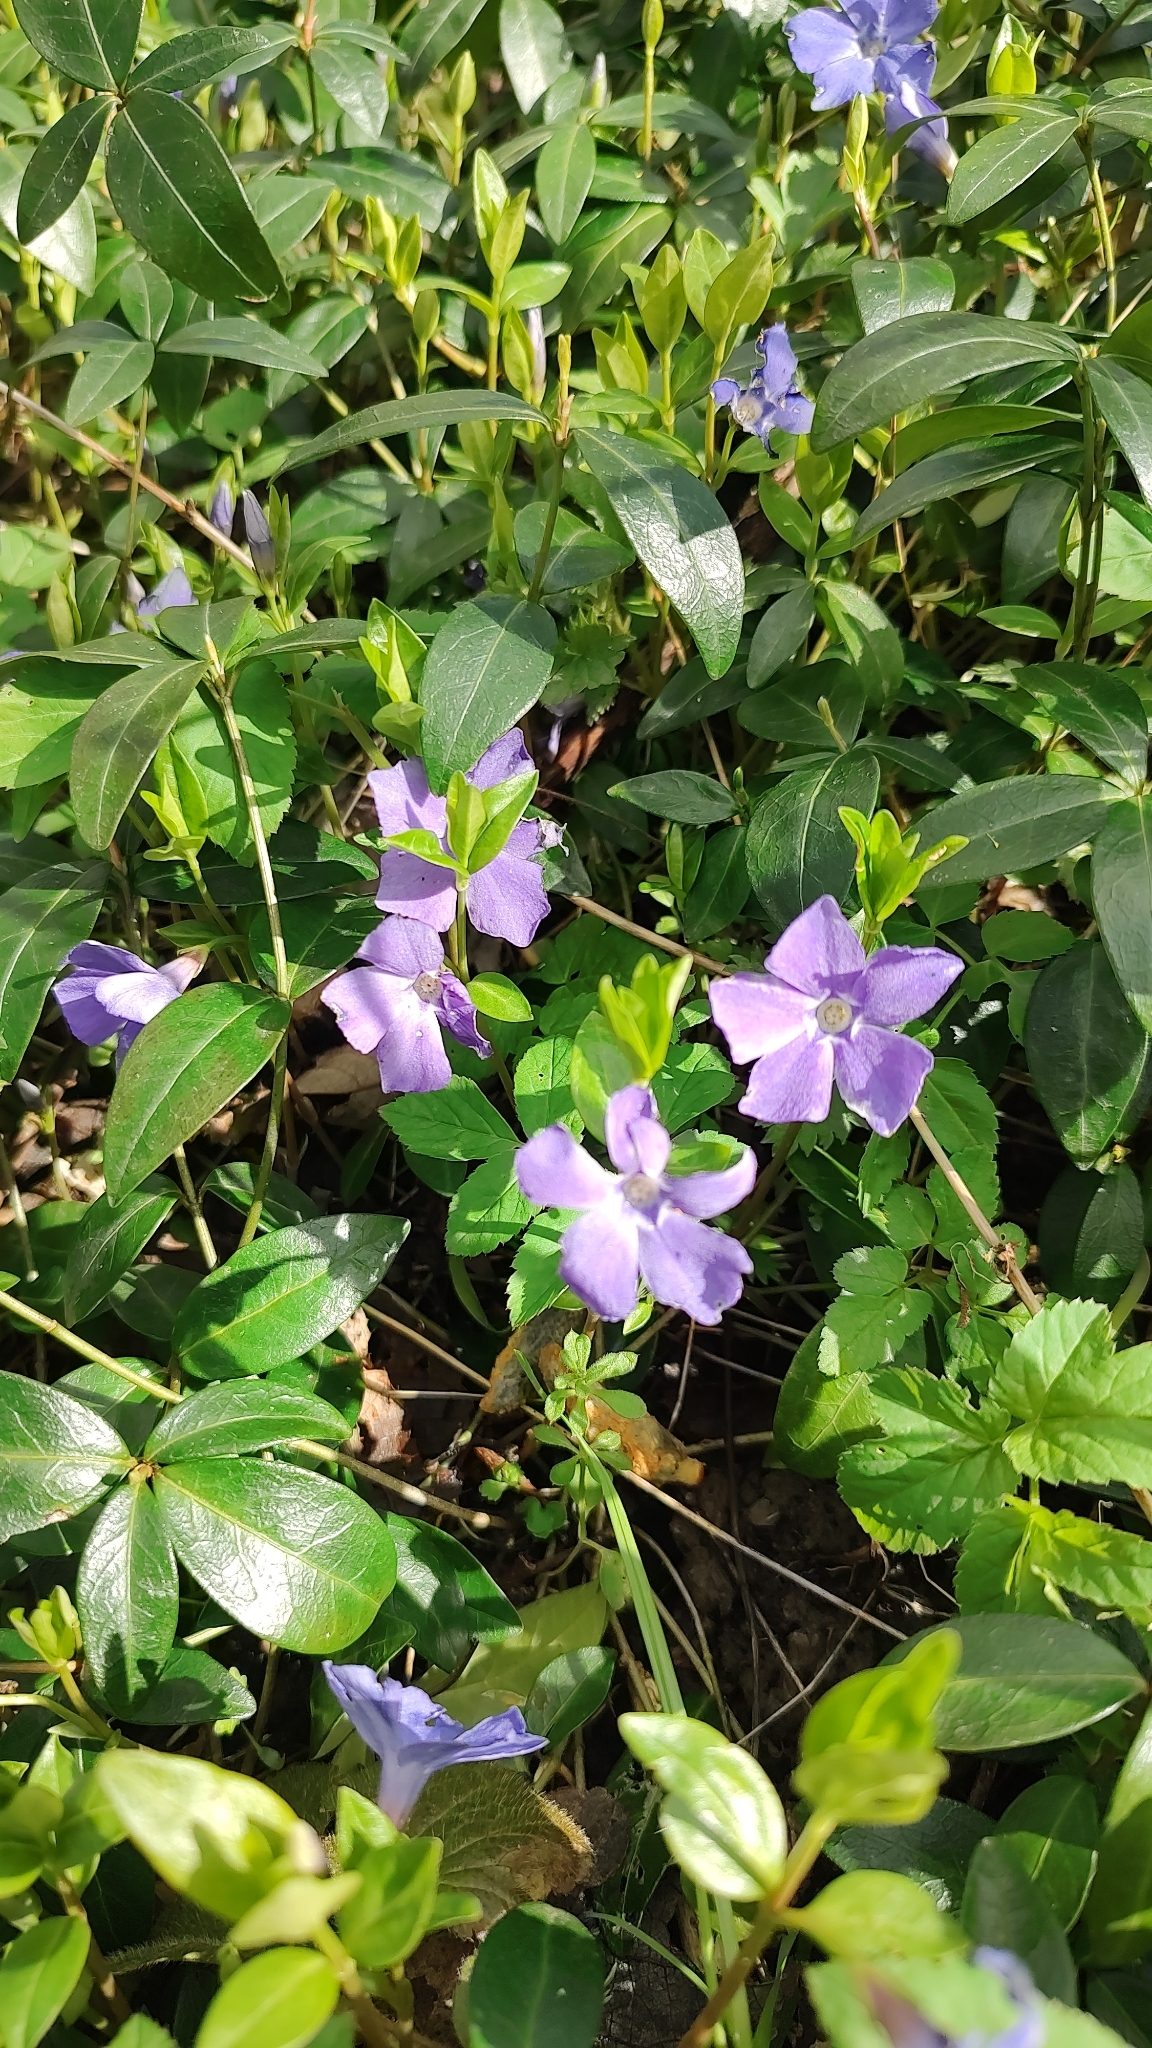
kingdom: Plantae
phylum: Tracheophyta
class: Magnoliopsida
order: Gentianales
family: Apocynaceae
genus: Vinca
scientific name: Vinca minor
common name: Lesser periwinkle
